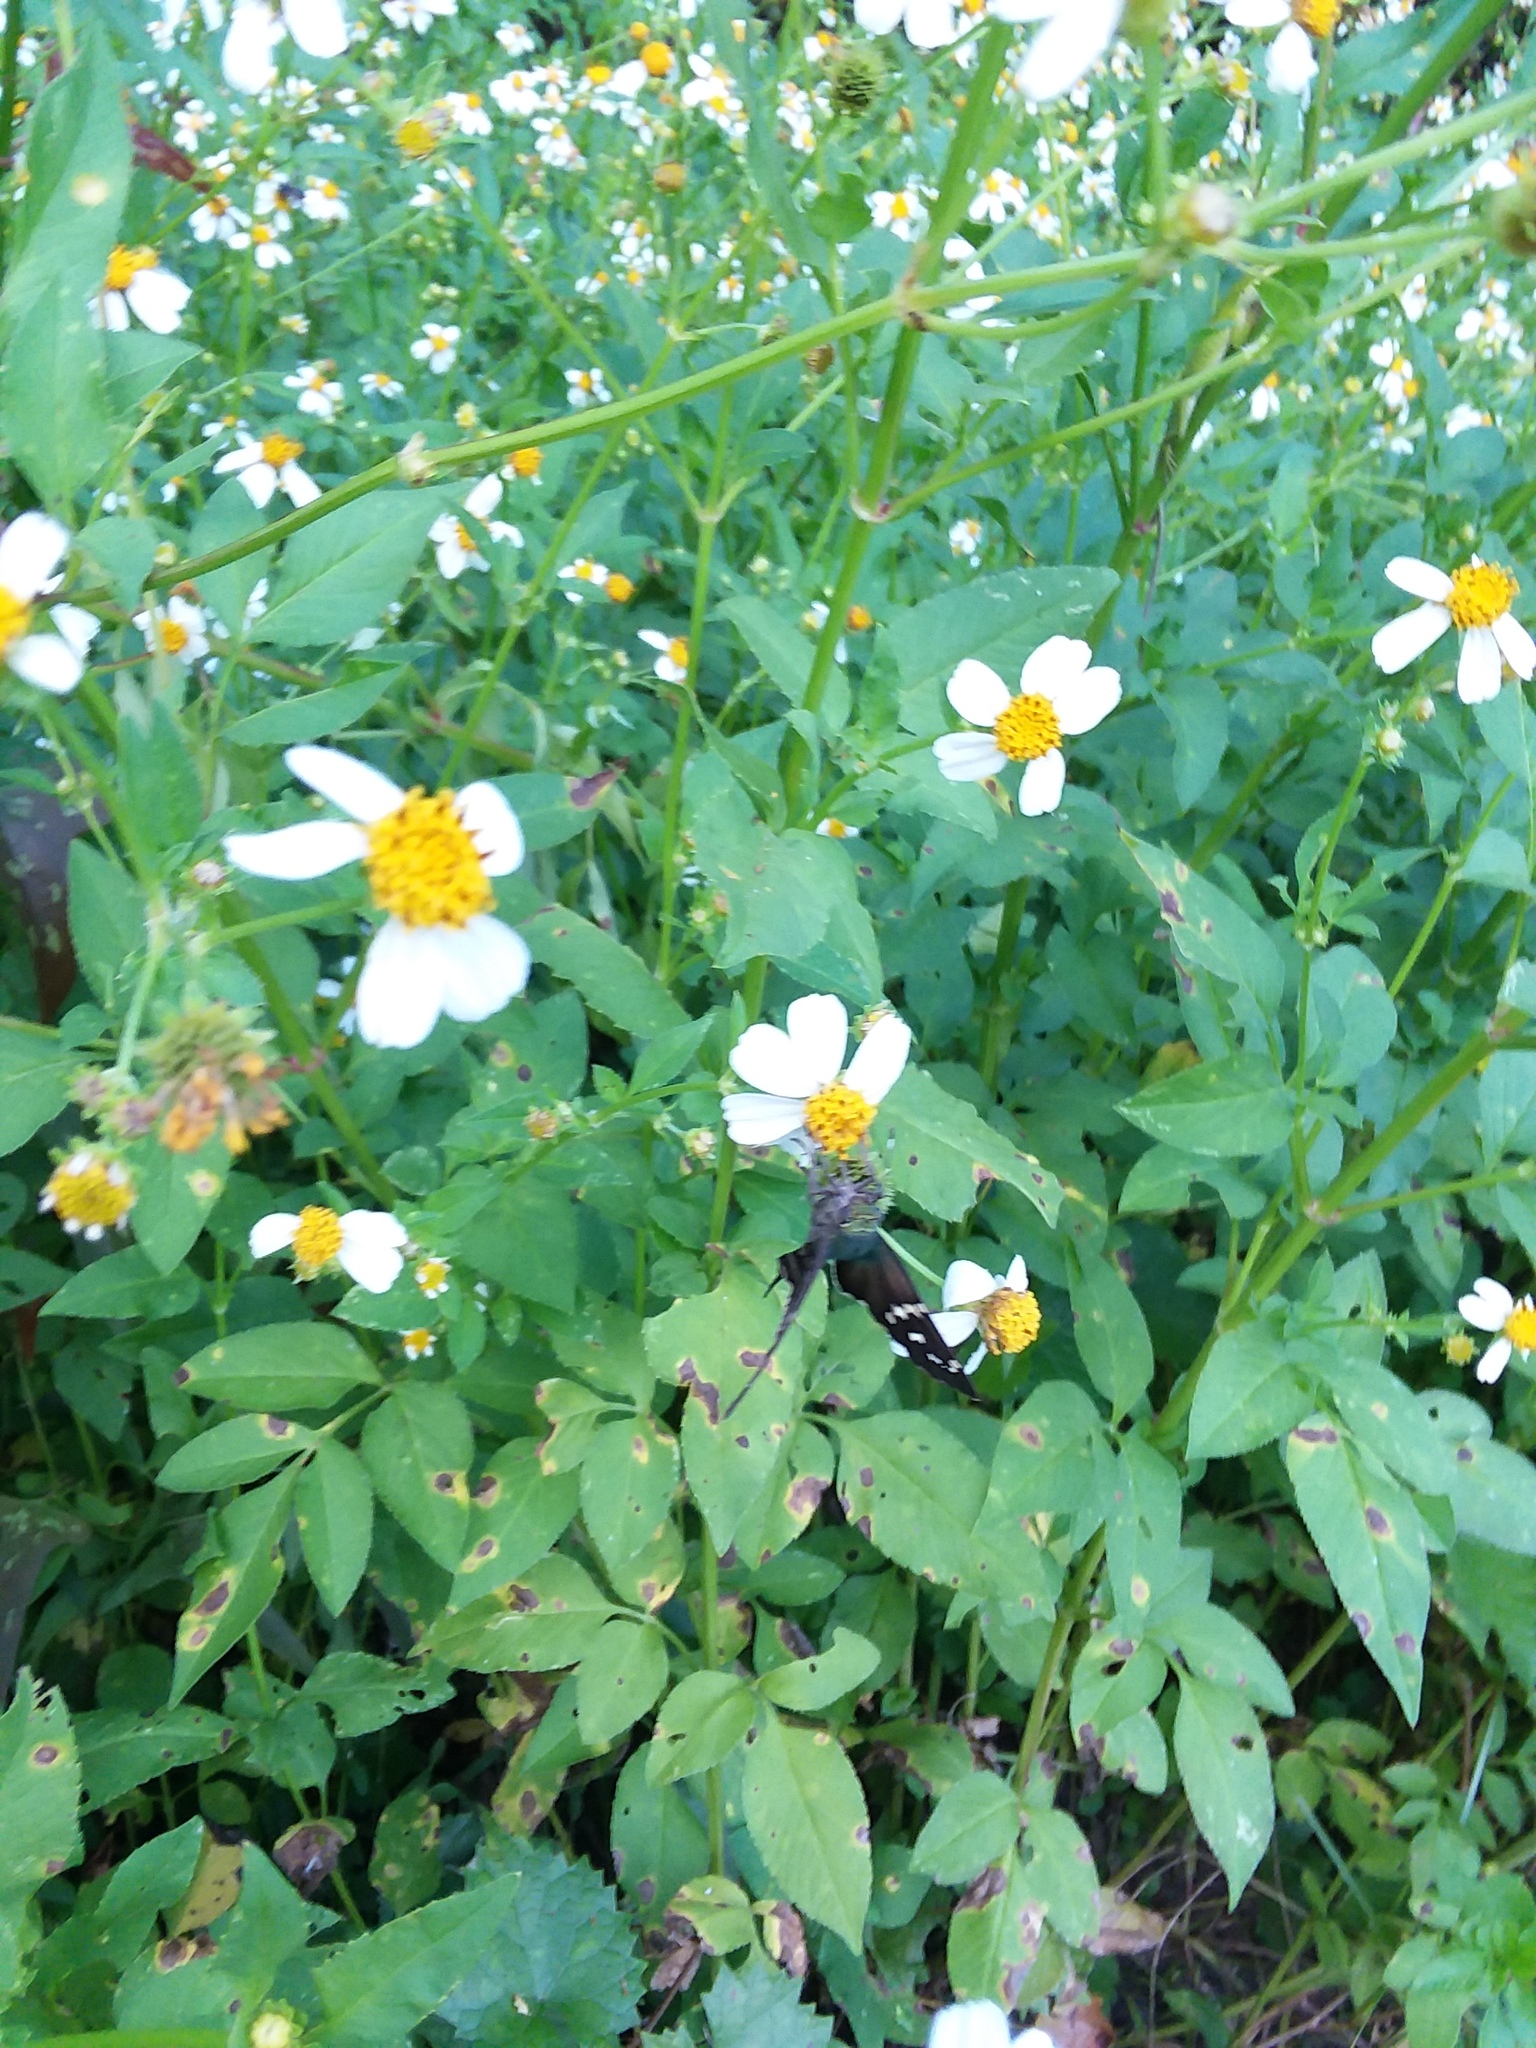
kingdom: Animalia
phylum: Arthropoda
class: Insecta
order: Lepidoptera
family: Hesperiidae
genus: Urbanus
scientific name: Urbanus proteus
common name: Long-tailed skipper
